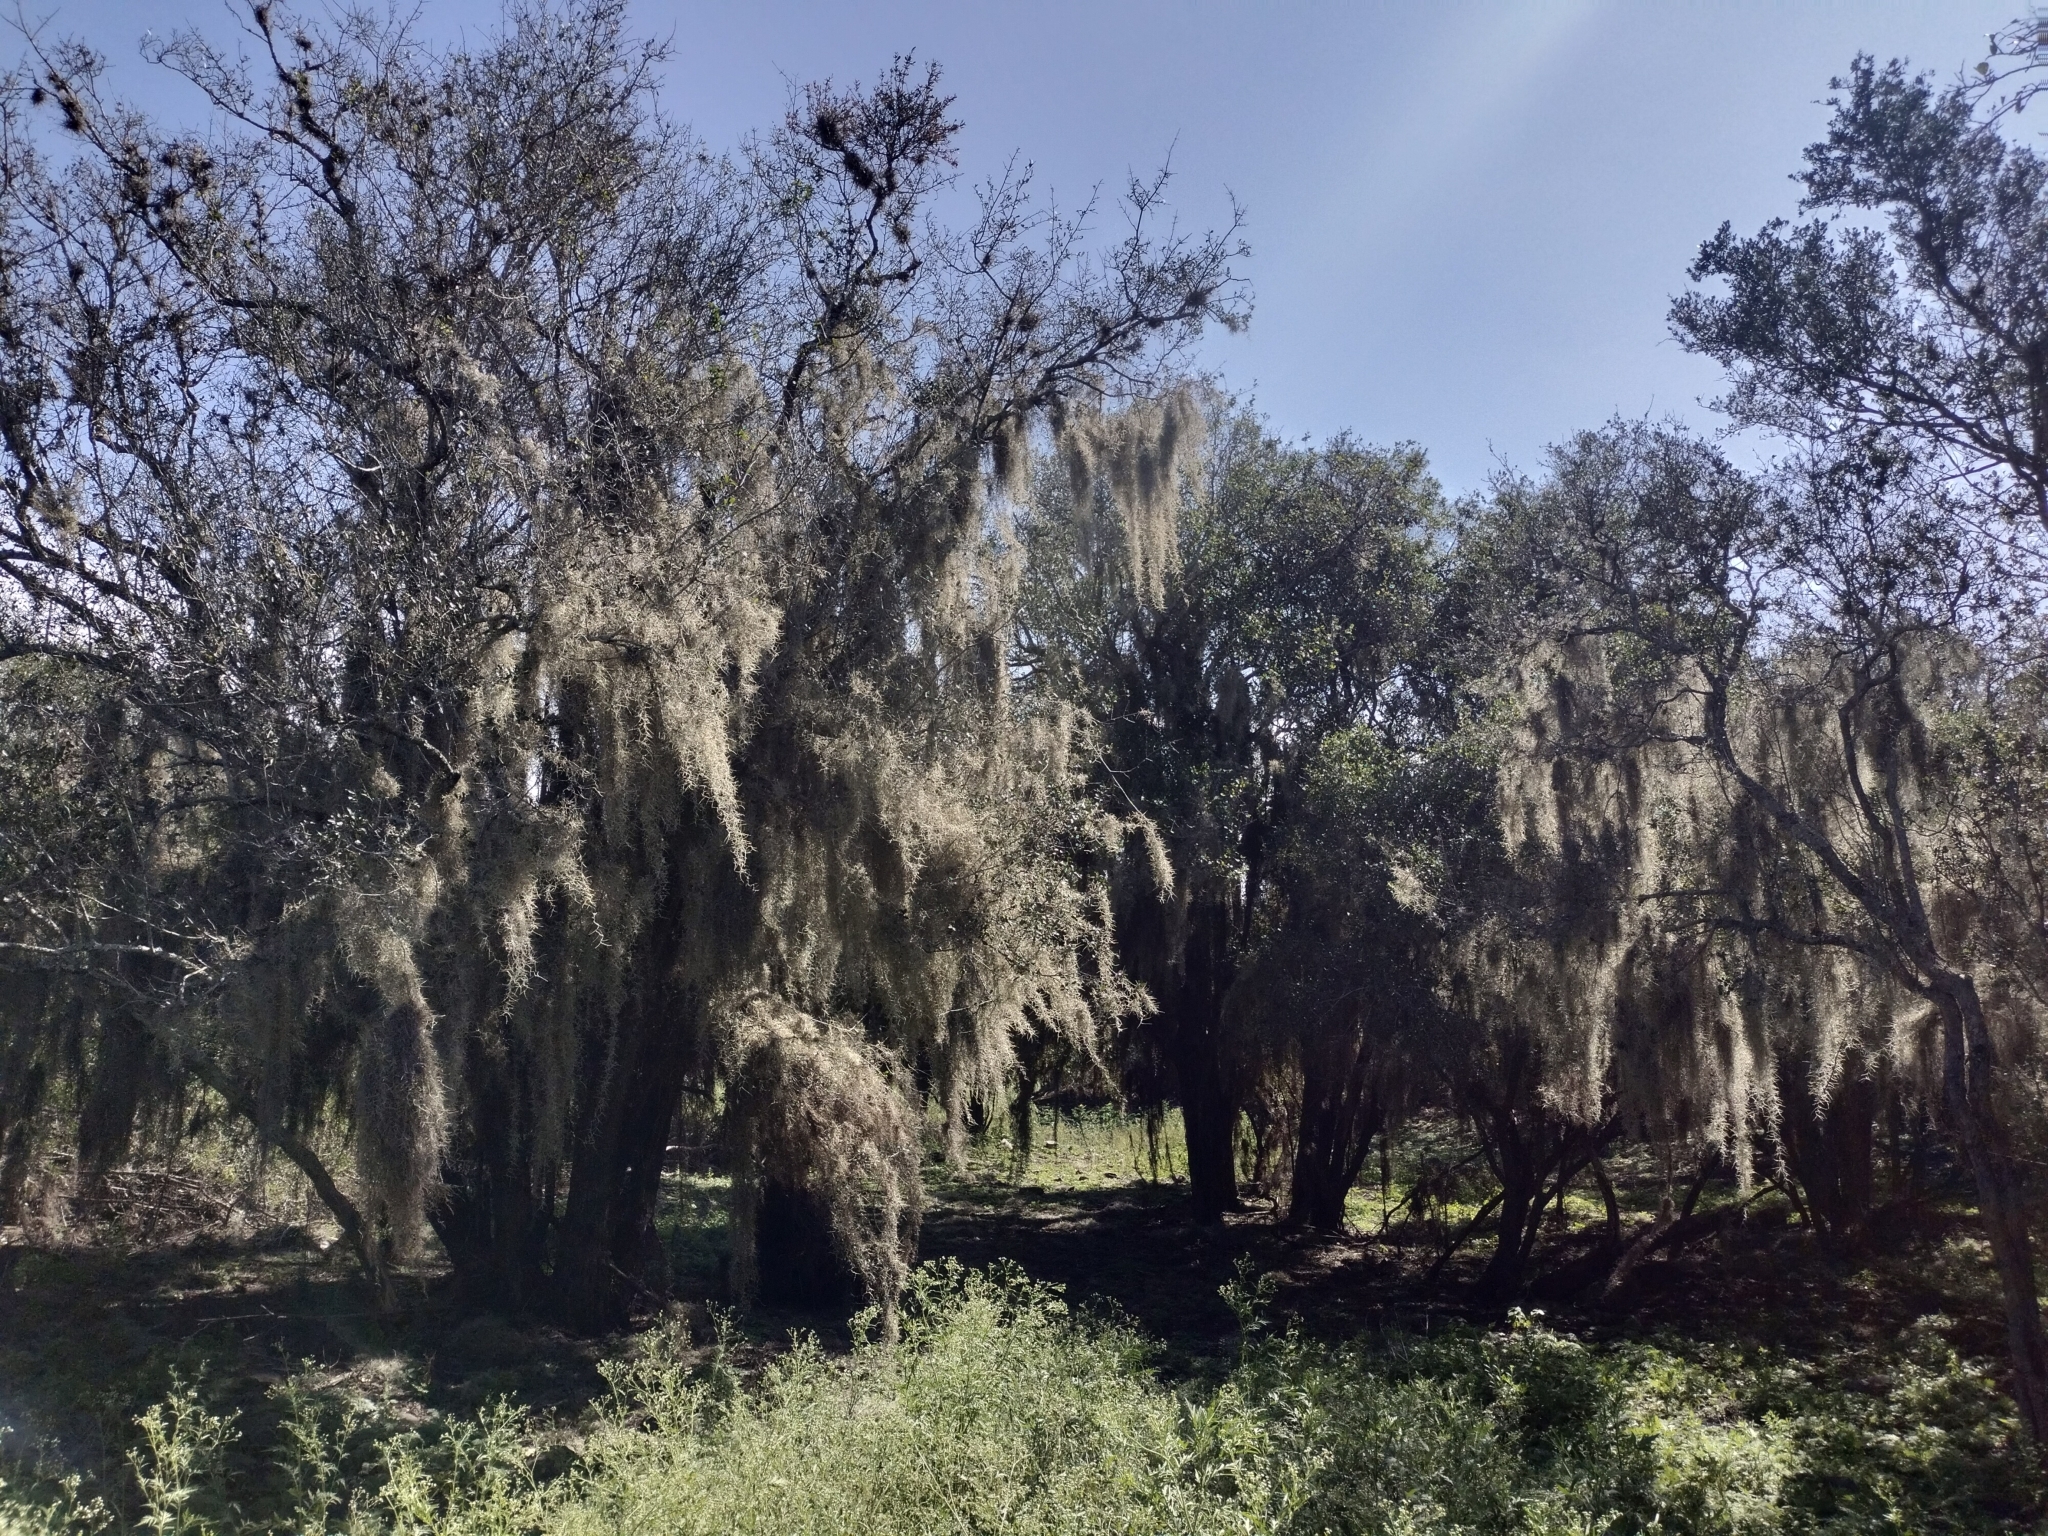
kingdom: Plantae
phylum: Tracheophyta
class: Liliopsida
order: Poales
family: Bromeliaceae
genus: Tillandsia
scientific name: Tillandsia usneoides
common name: Spanish moss
